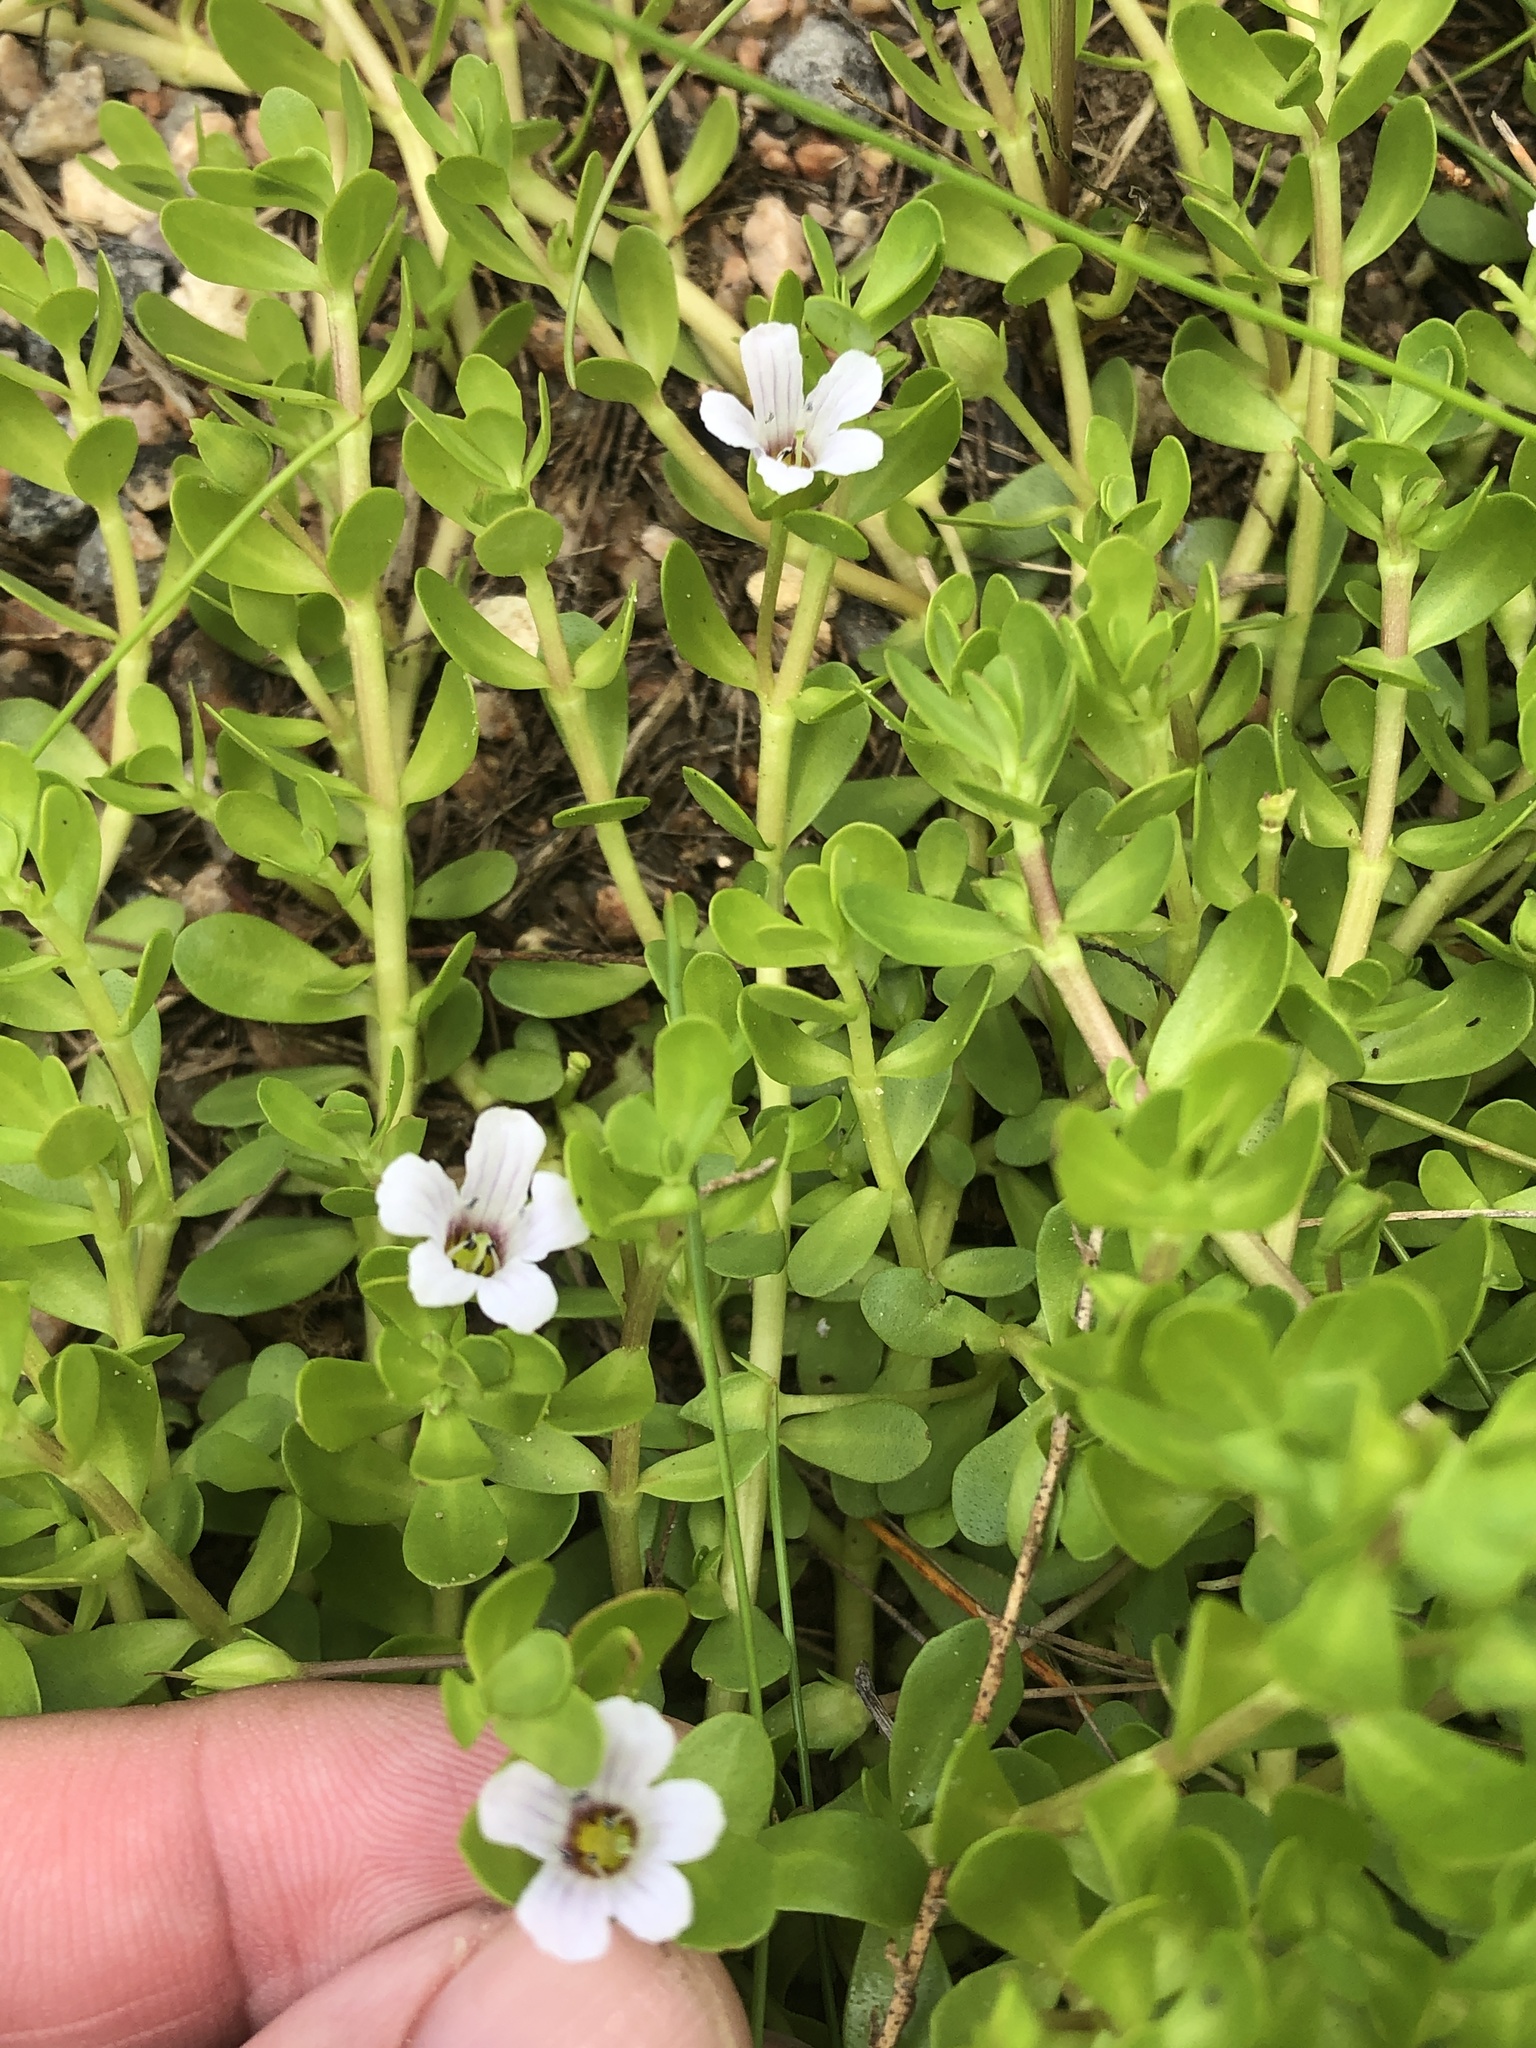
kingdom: Plantae
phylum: Tracheophyta
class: Magnoliopsida
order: Lamiales
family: Plantaginaceae
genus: Bacopa
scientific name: Bacopa monnieri
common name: Indian-pennywort
